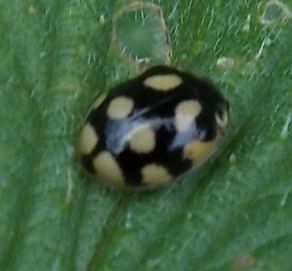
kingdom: Animalia
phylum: Arthropoda
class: Insecta
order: Coleoptera
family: Coccinellidae
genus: Adalia
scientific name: Adalia decempunctata
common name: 10-spot ladybird
